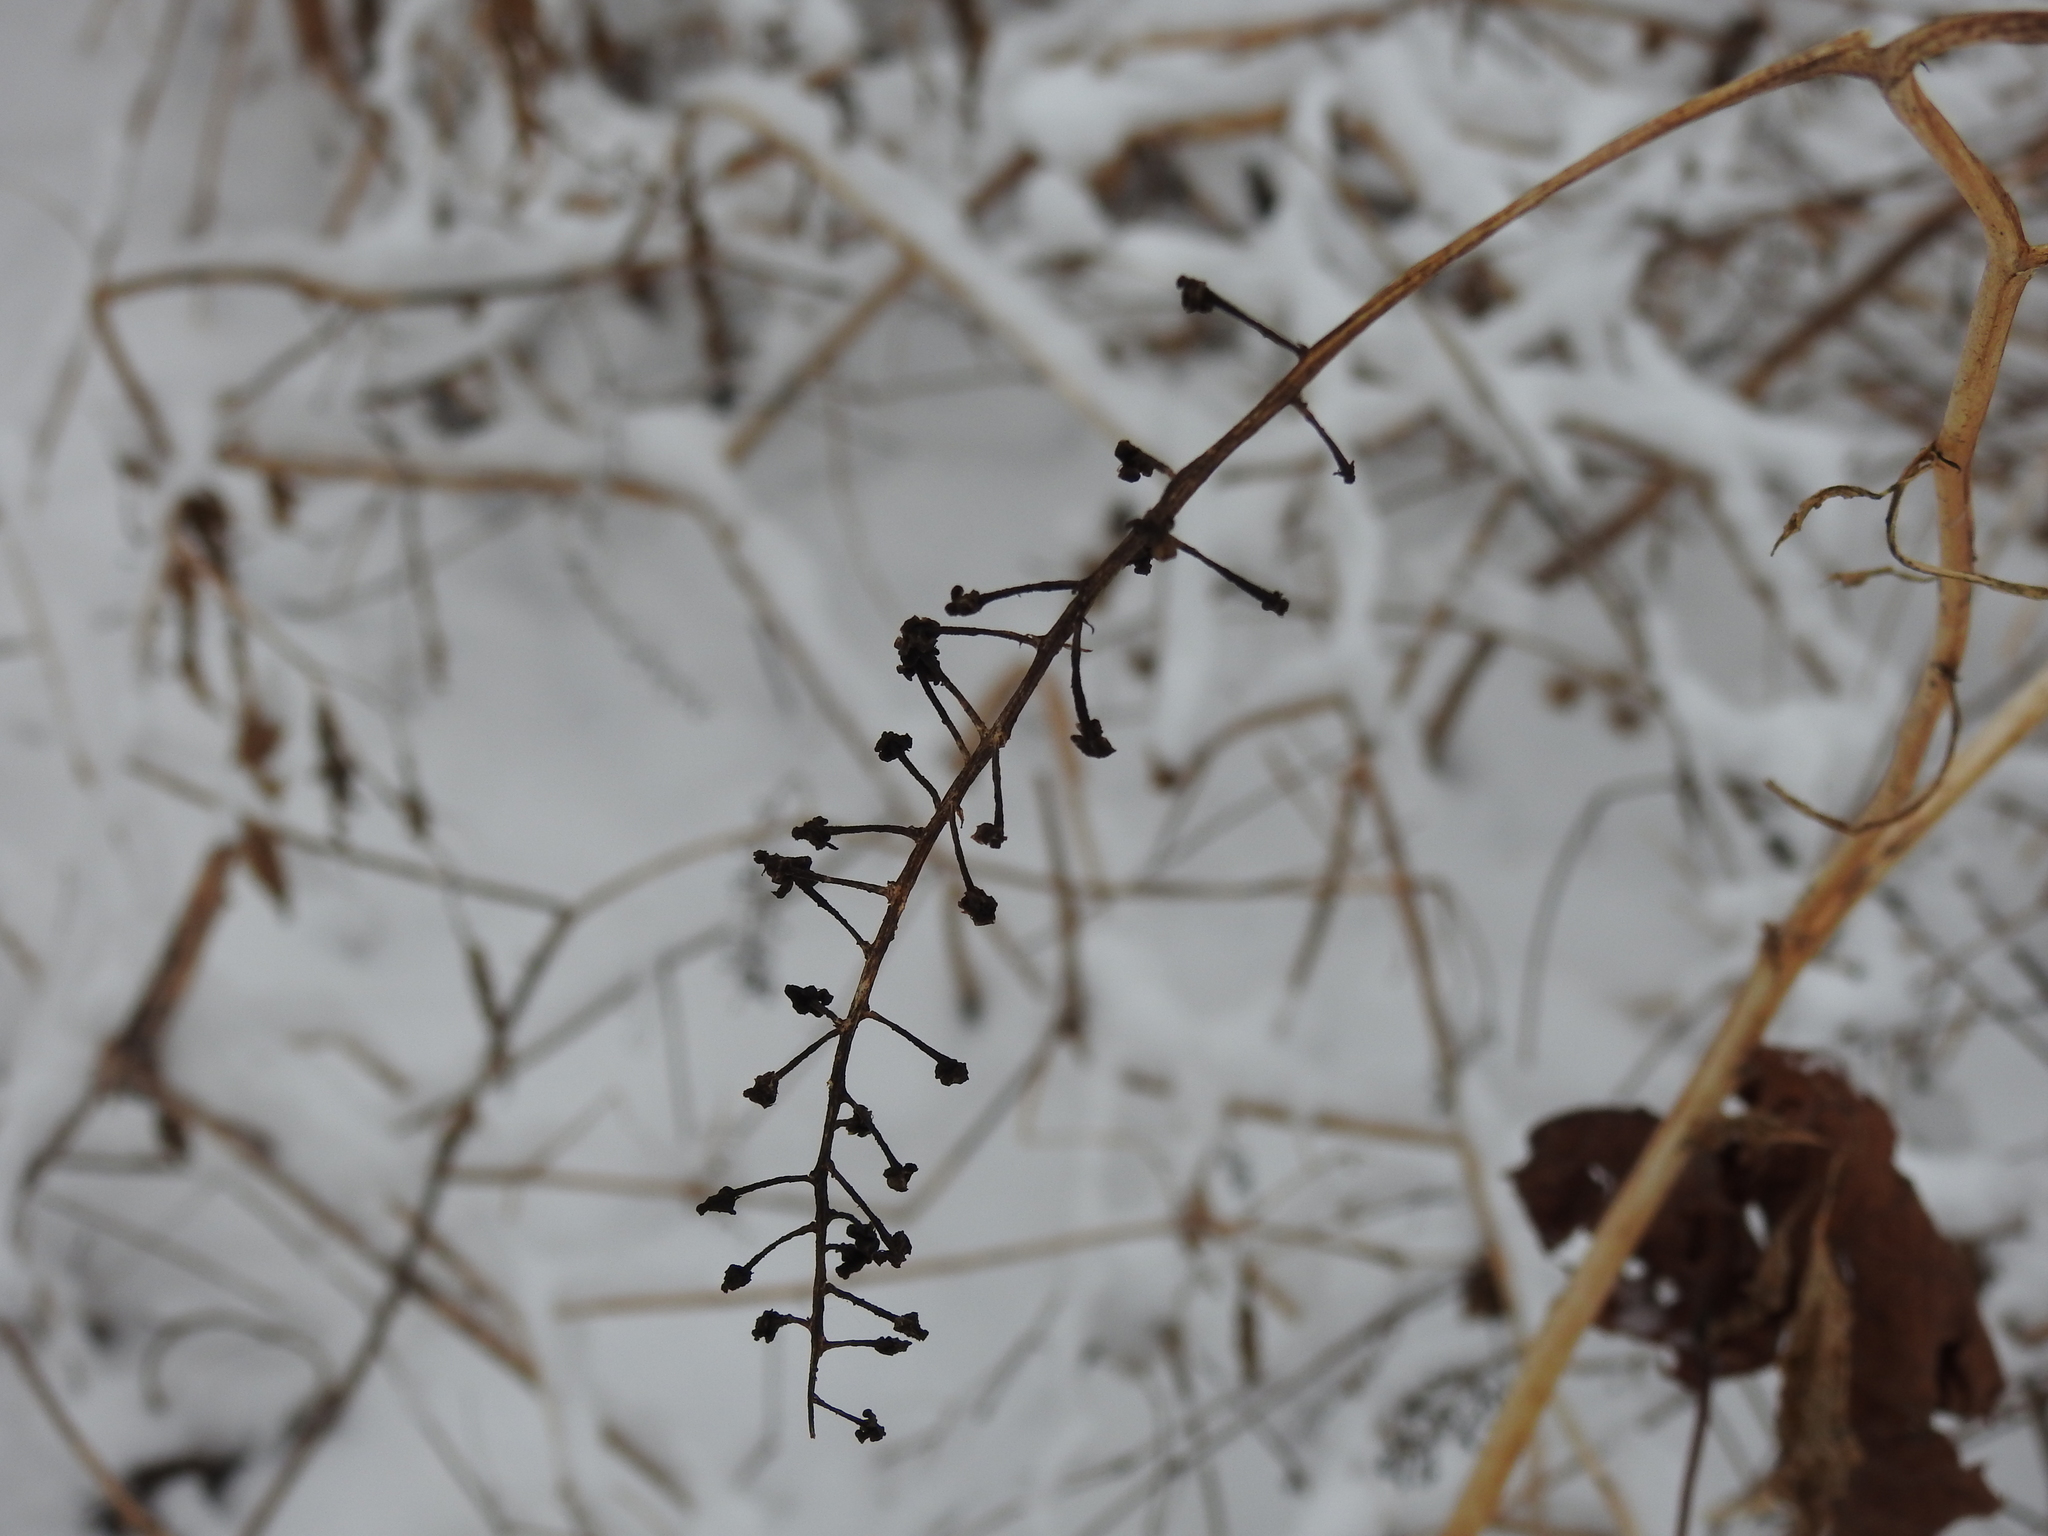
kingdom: Plantae
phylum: Tracheophyta
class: Magnoliopsida
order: Caryophyllales
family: Phytolaccaceae
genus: Phytolacca
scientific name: Phytolacca americana
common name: American pokeweed
